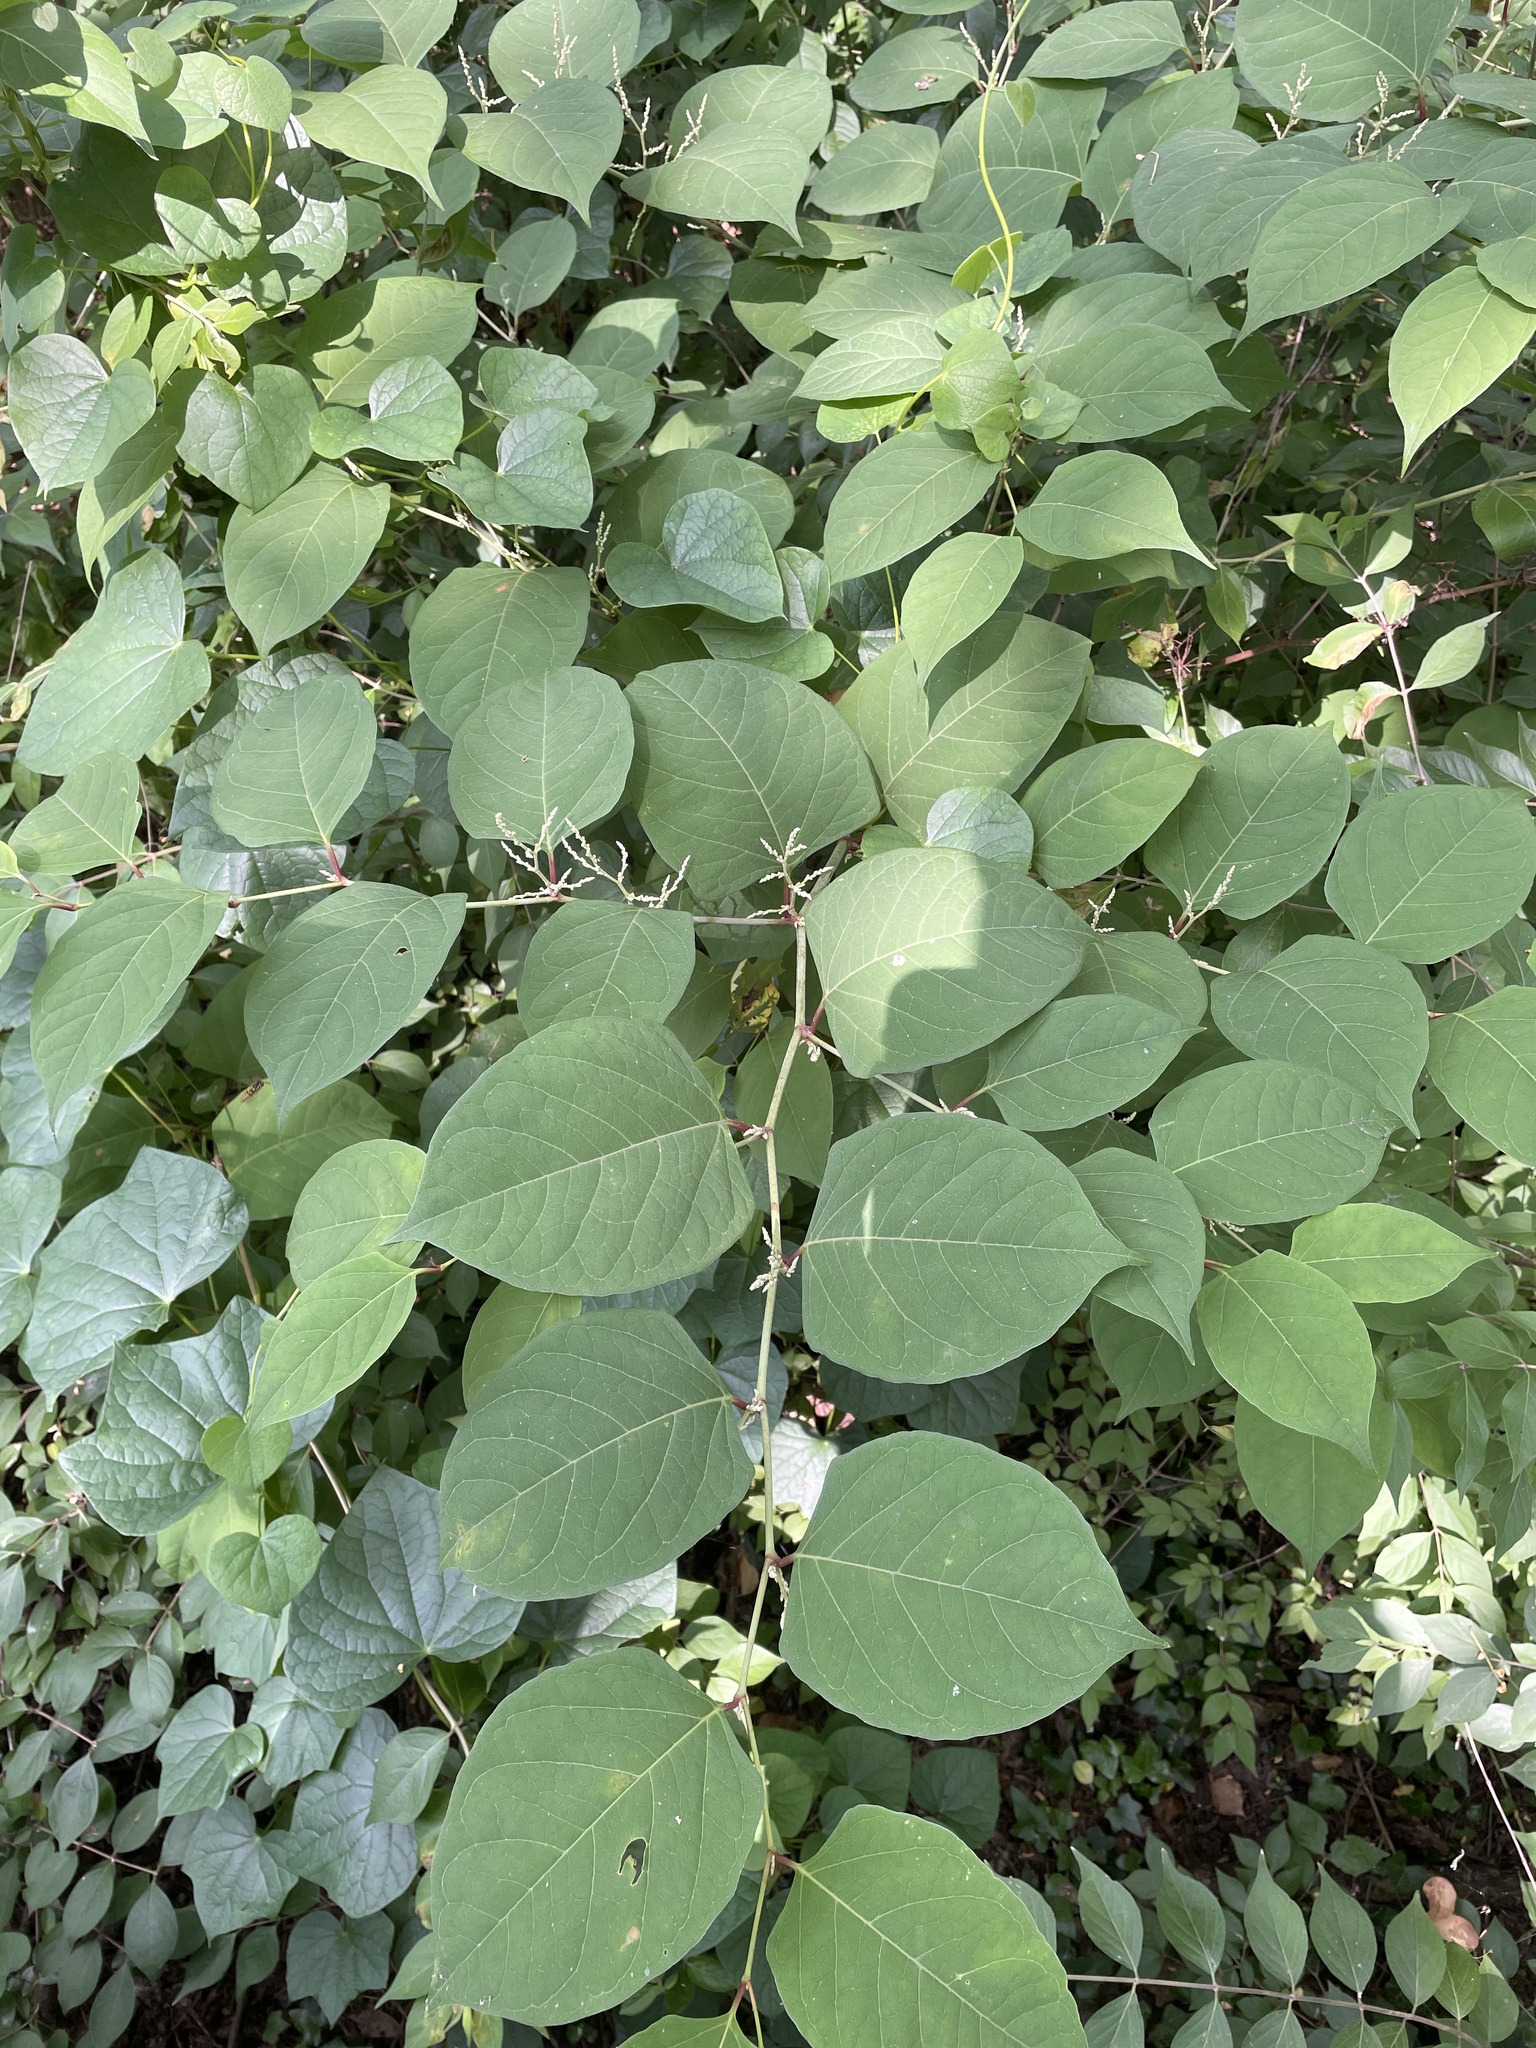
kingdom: Plantae
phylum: Tracheophyta
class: Magnoliopsida
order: Caryophyllales
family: Polygonaceae
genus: Reynoutria
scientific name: Reynoutria japonica
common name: Japanese knotweed
